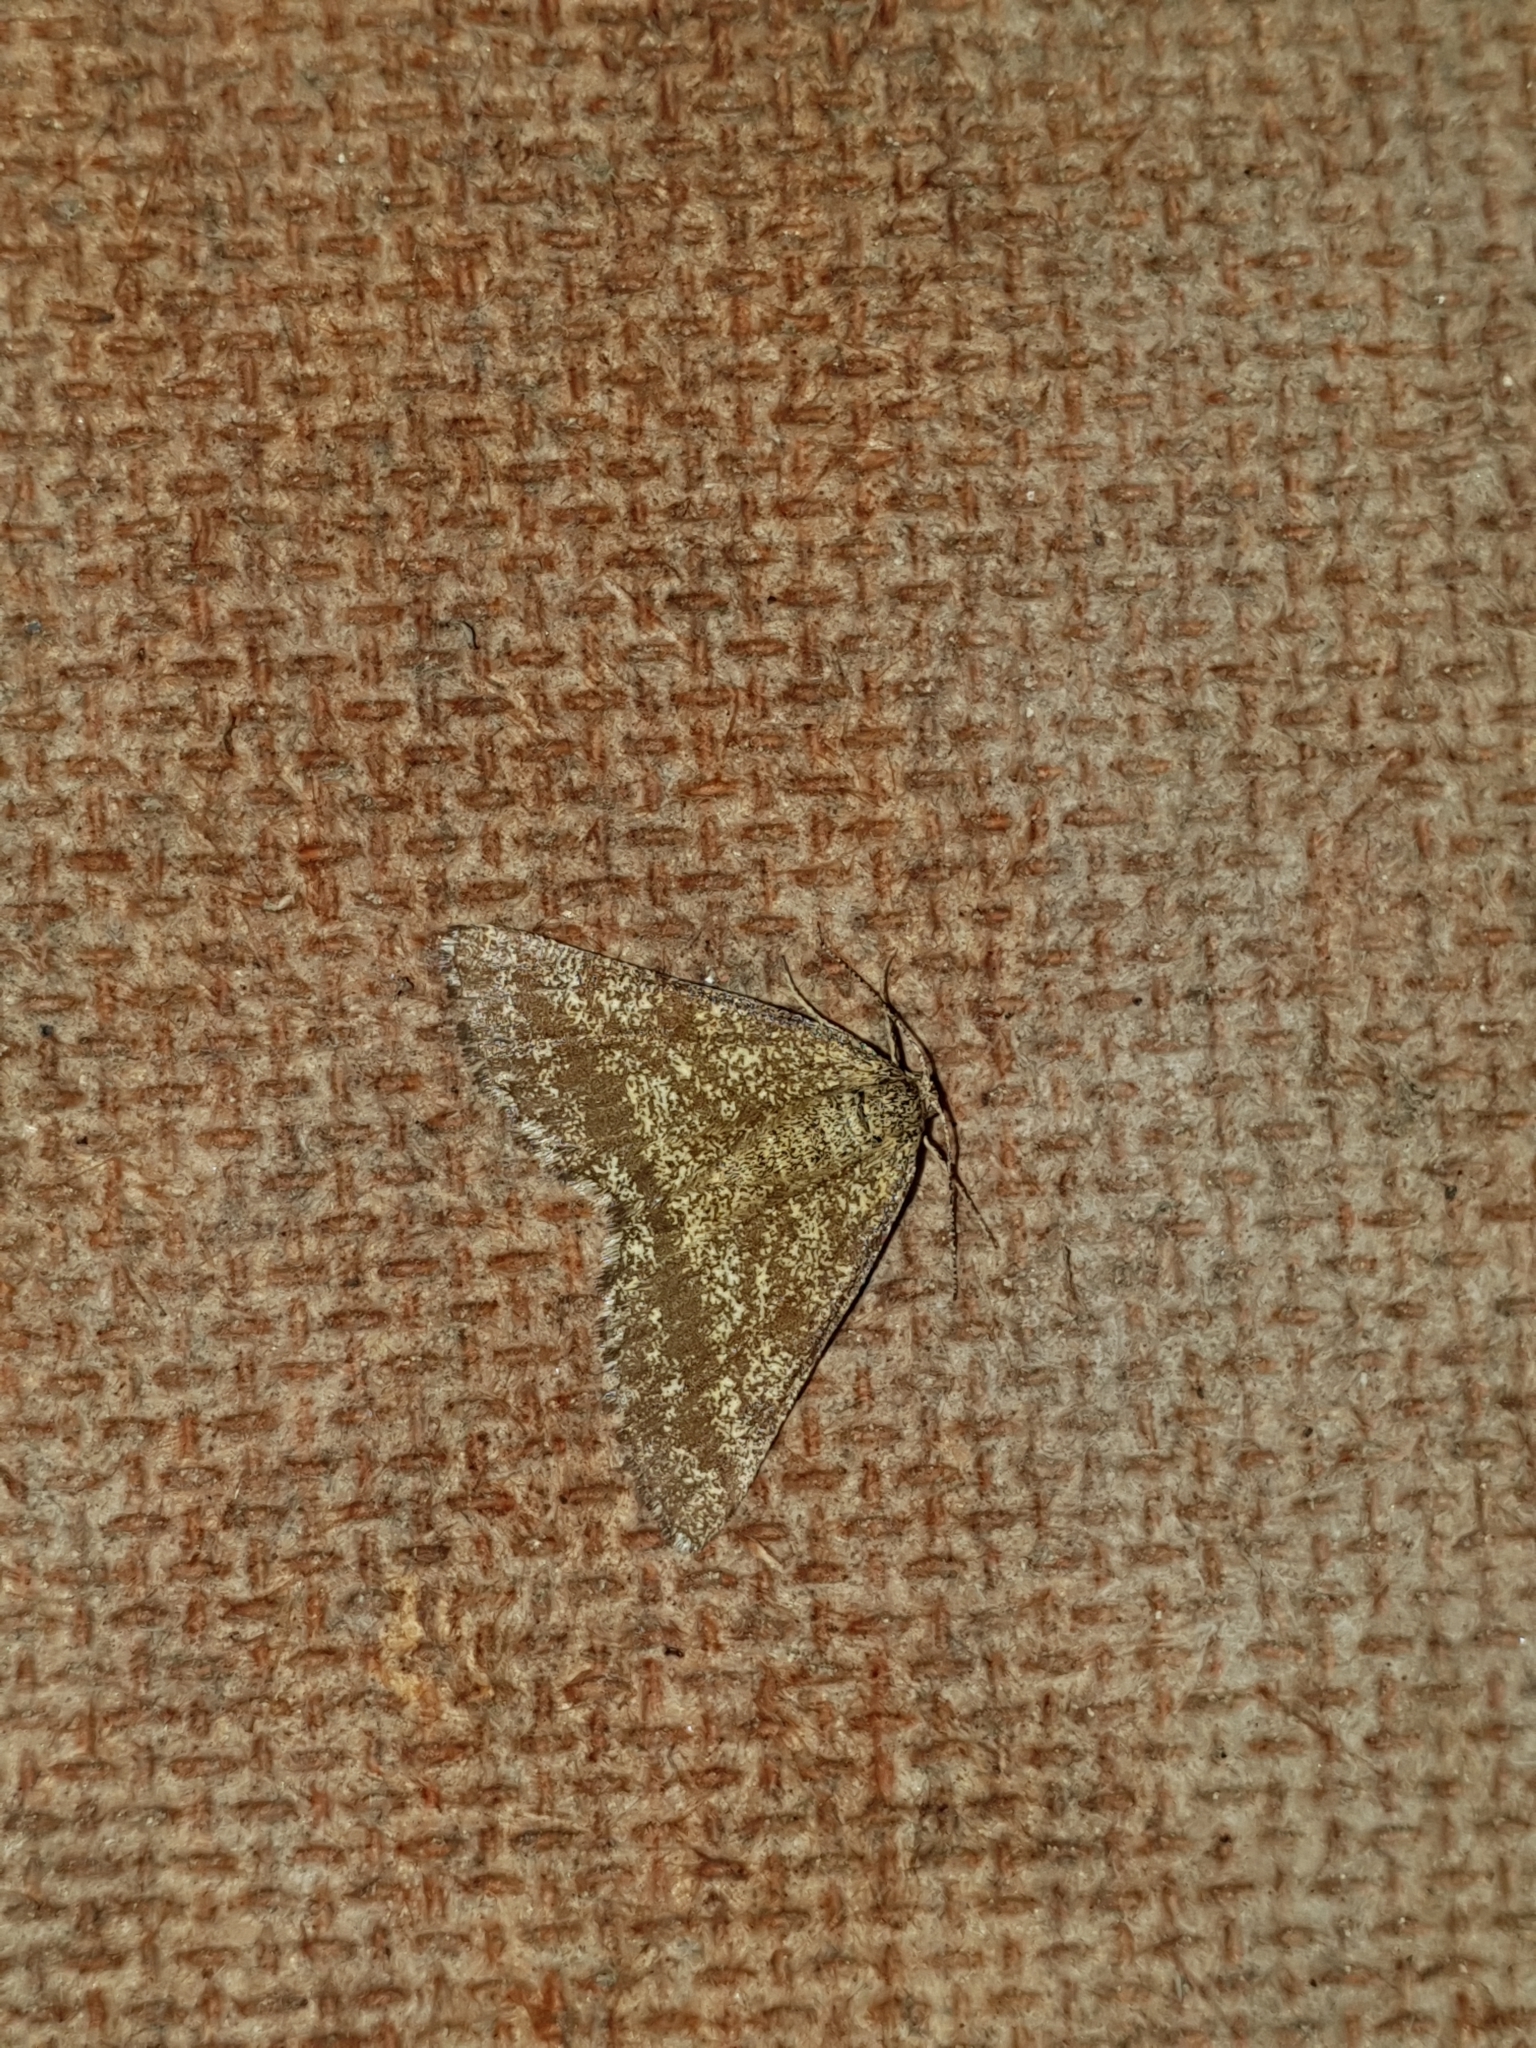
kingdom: Animalia
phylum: Arthropoda
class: Insecta
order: Lepidoptera
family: Geometridae
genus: Ematurga
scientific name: Ematurga atomaria
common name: Common heath
